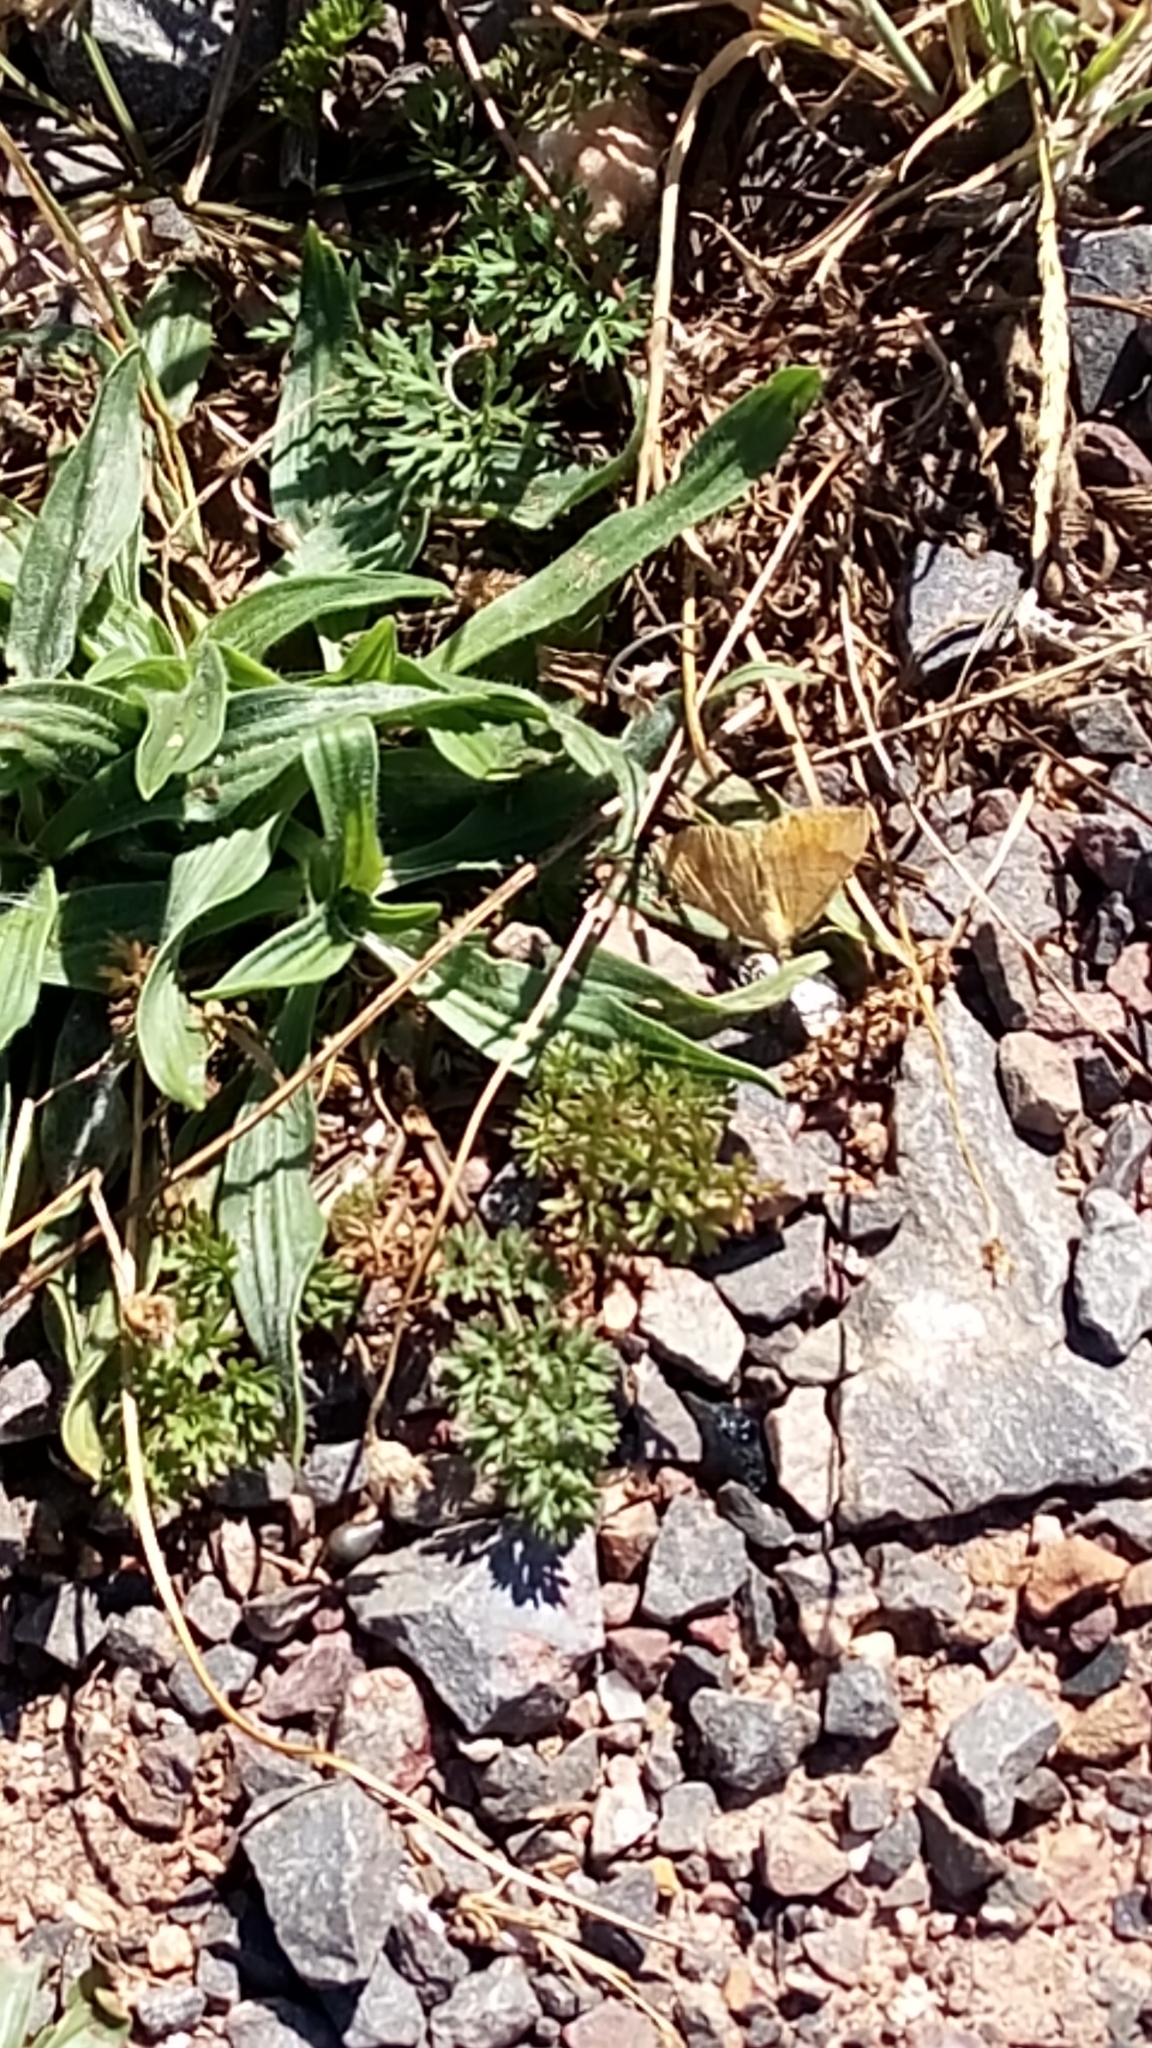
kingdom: Animalia
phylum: Arthropoda
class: Insecta
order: Lepidoptera
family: Geometridae
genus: Camptogramma
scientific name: Camptogramma bilineata
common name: Yellow shell
